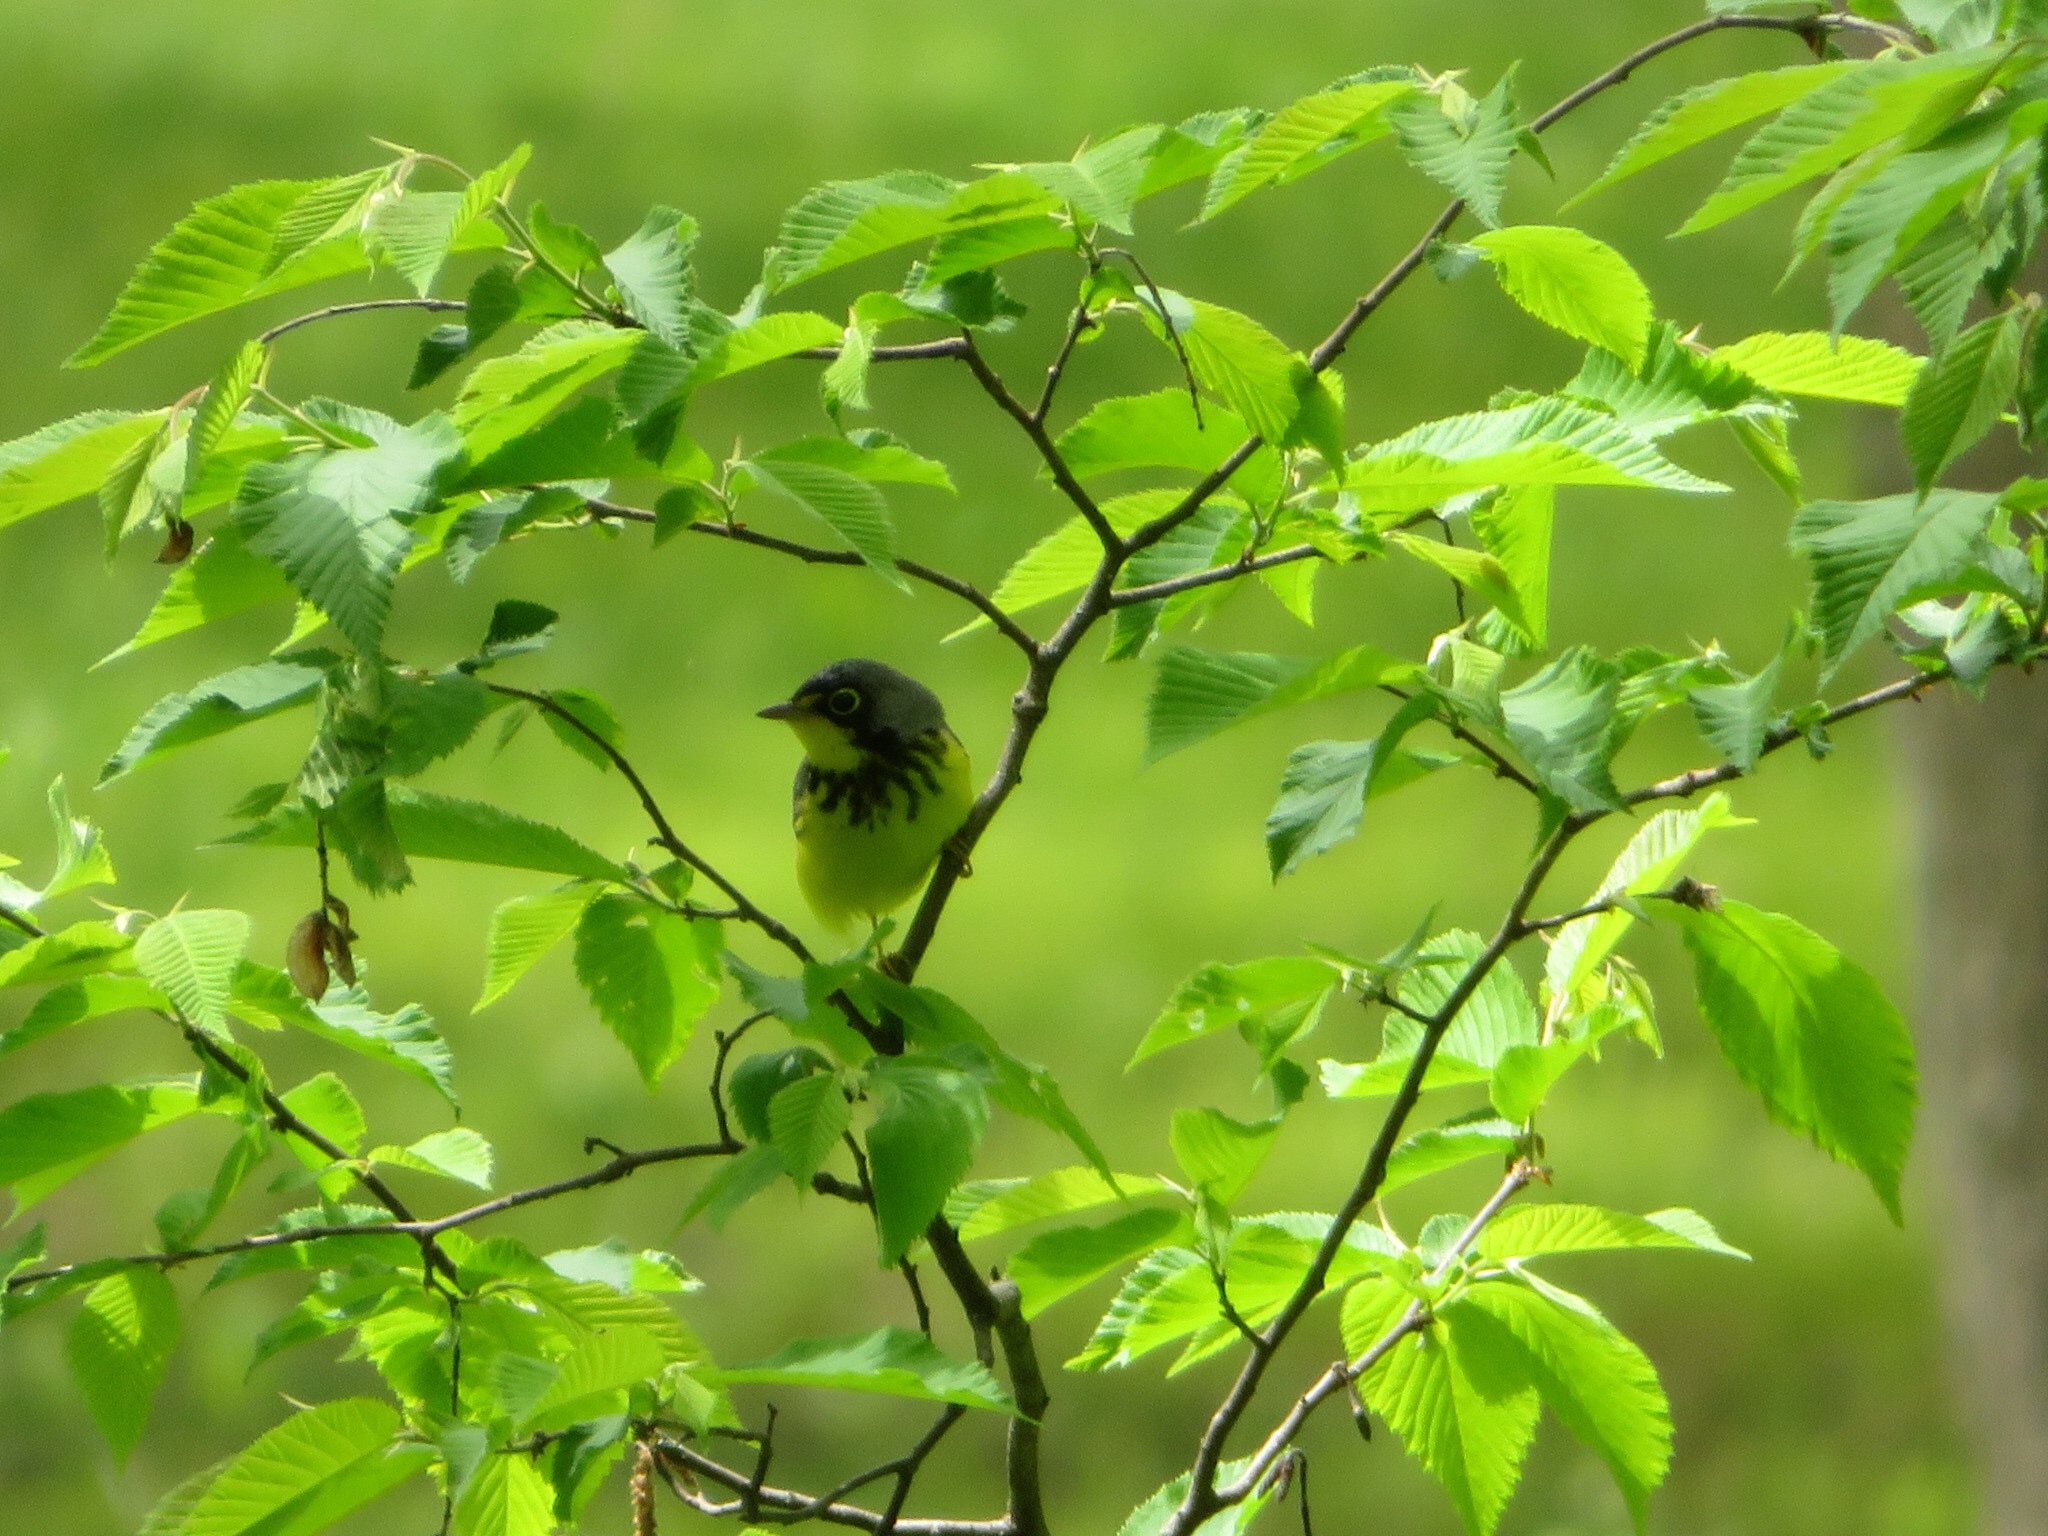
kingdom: Animalia
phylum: Chordata
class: Aves
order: Passeriformes
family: Parulidae
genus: Cardellina
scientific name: Cardellina canadensis
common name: Canada warbler
